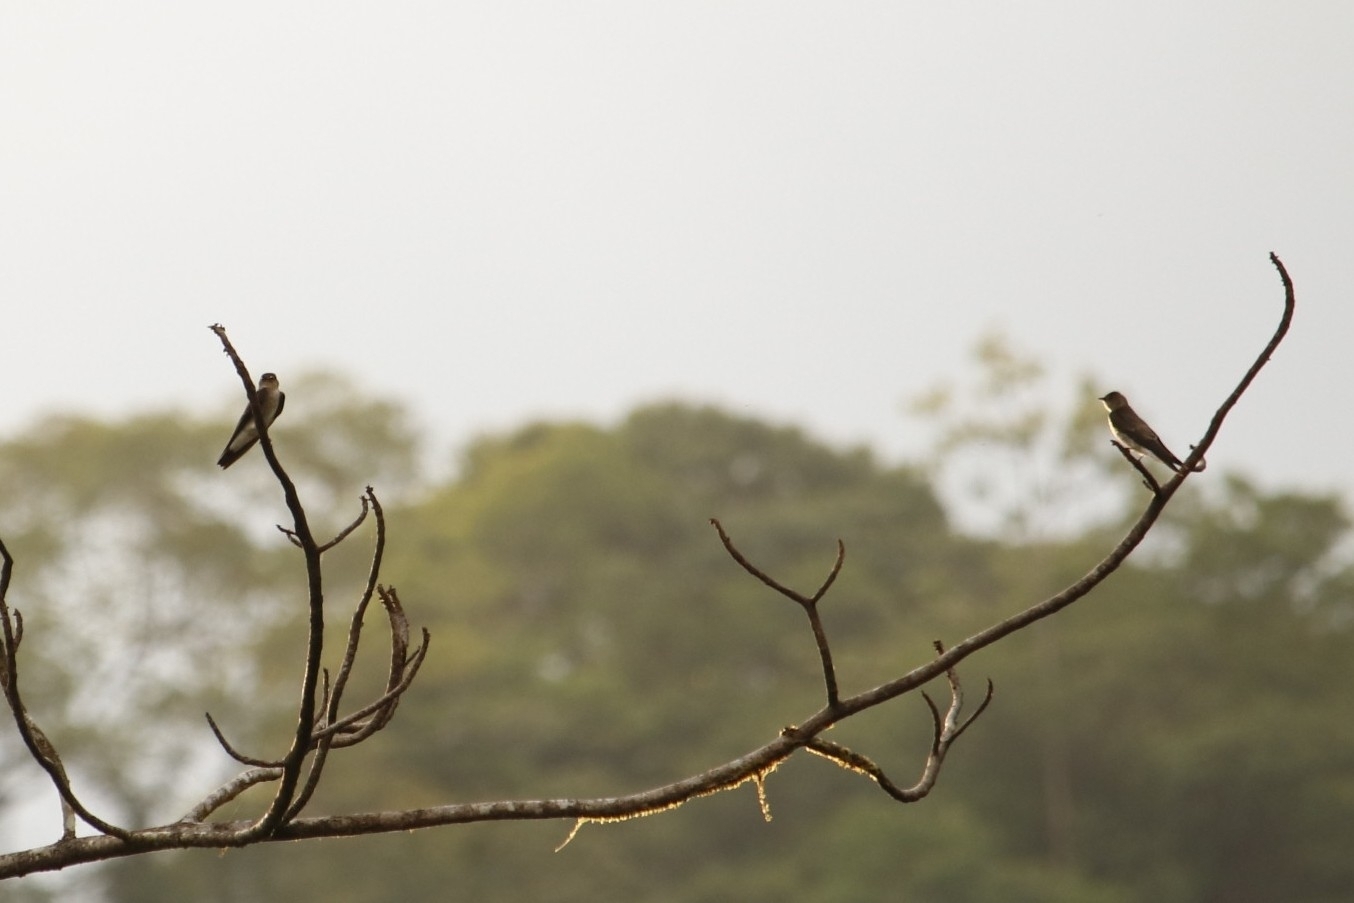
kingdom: Animalia
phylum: Chordata
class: Aves
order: Passeriformes
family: Hirundinidae
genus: Stelgidopteryx
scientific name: Stelgidopteryx ruficollis
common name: Southern rough-winged swallow
